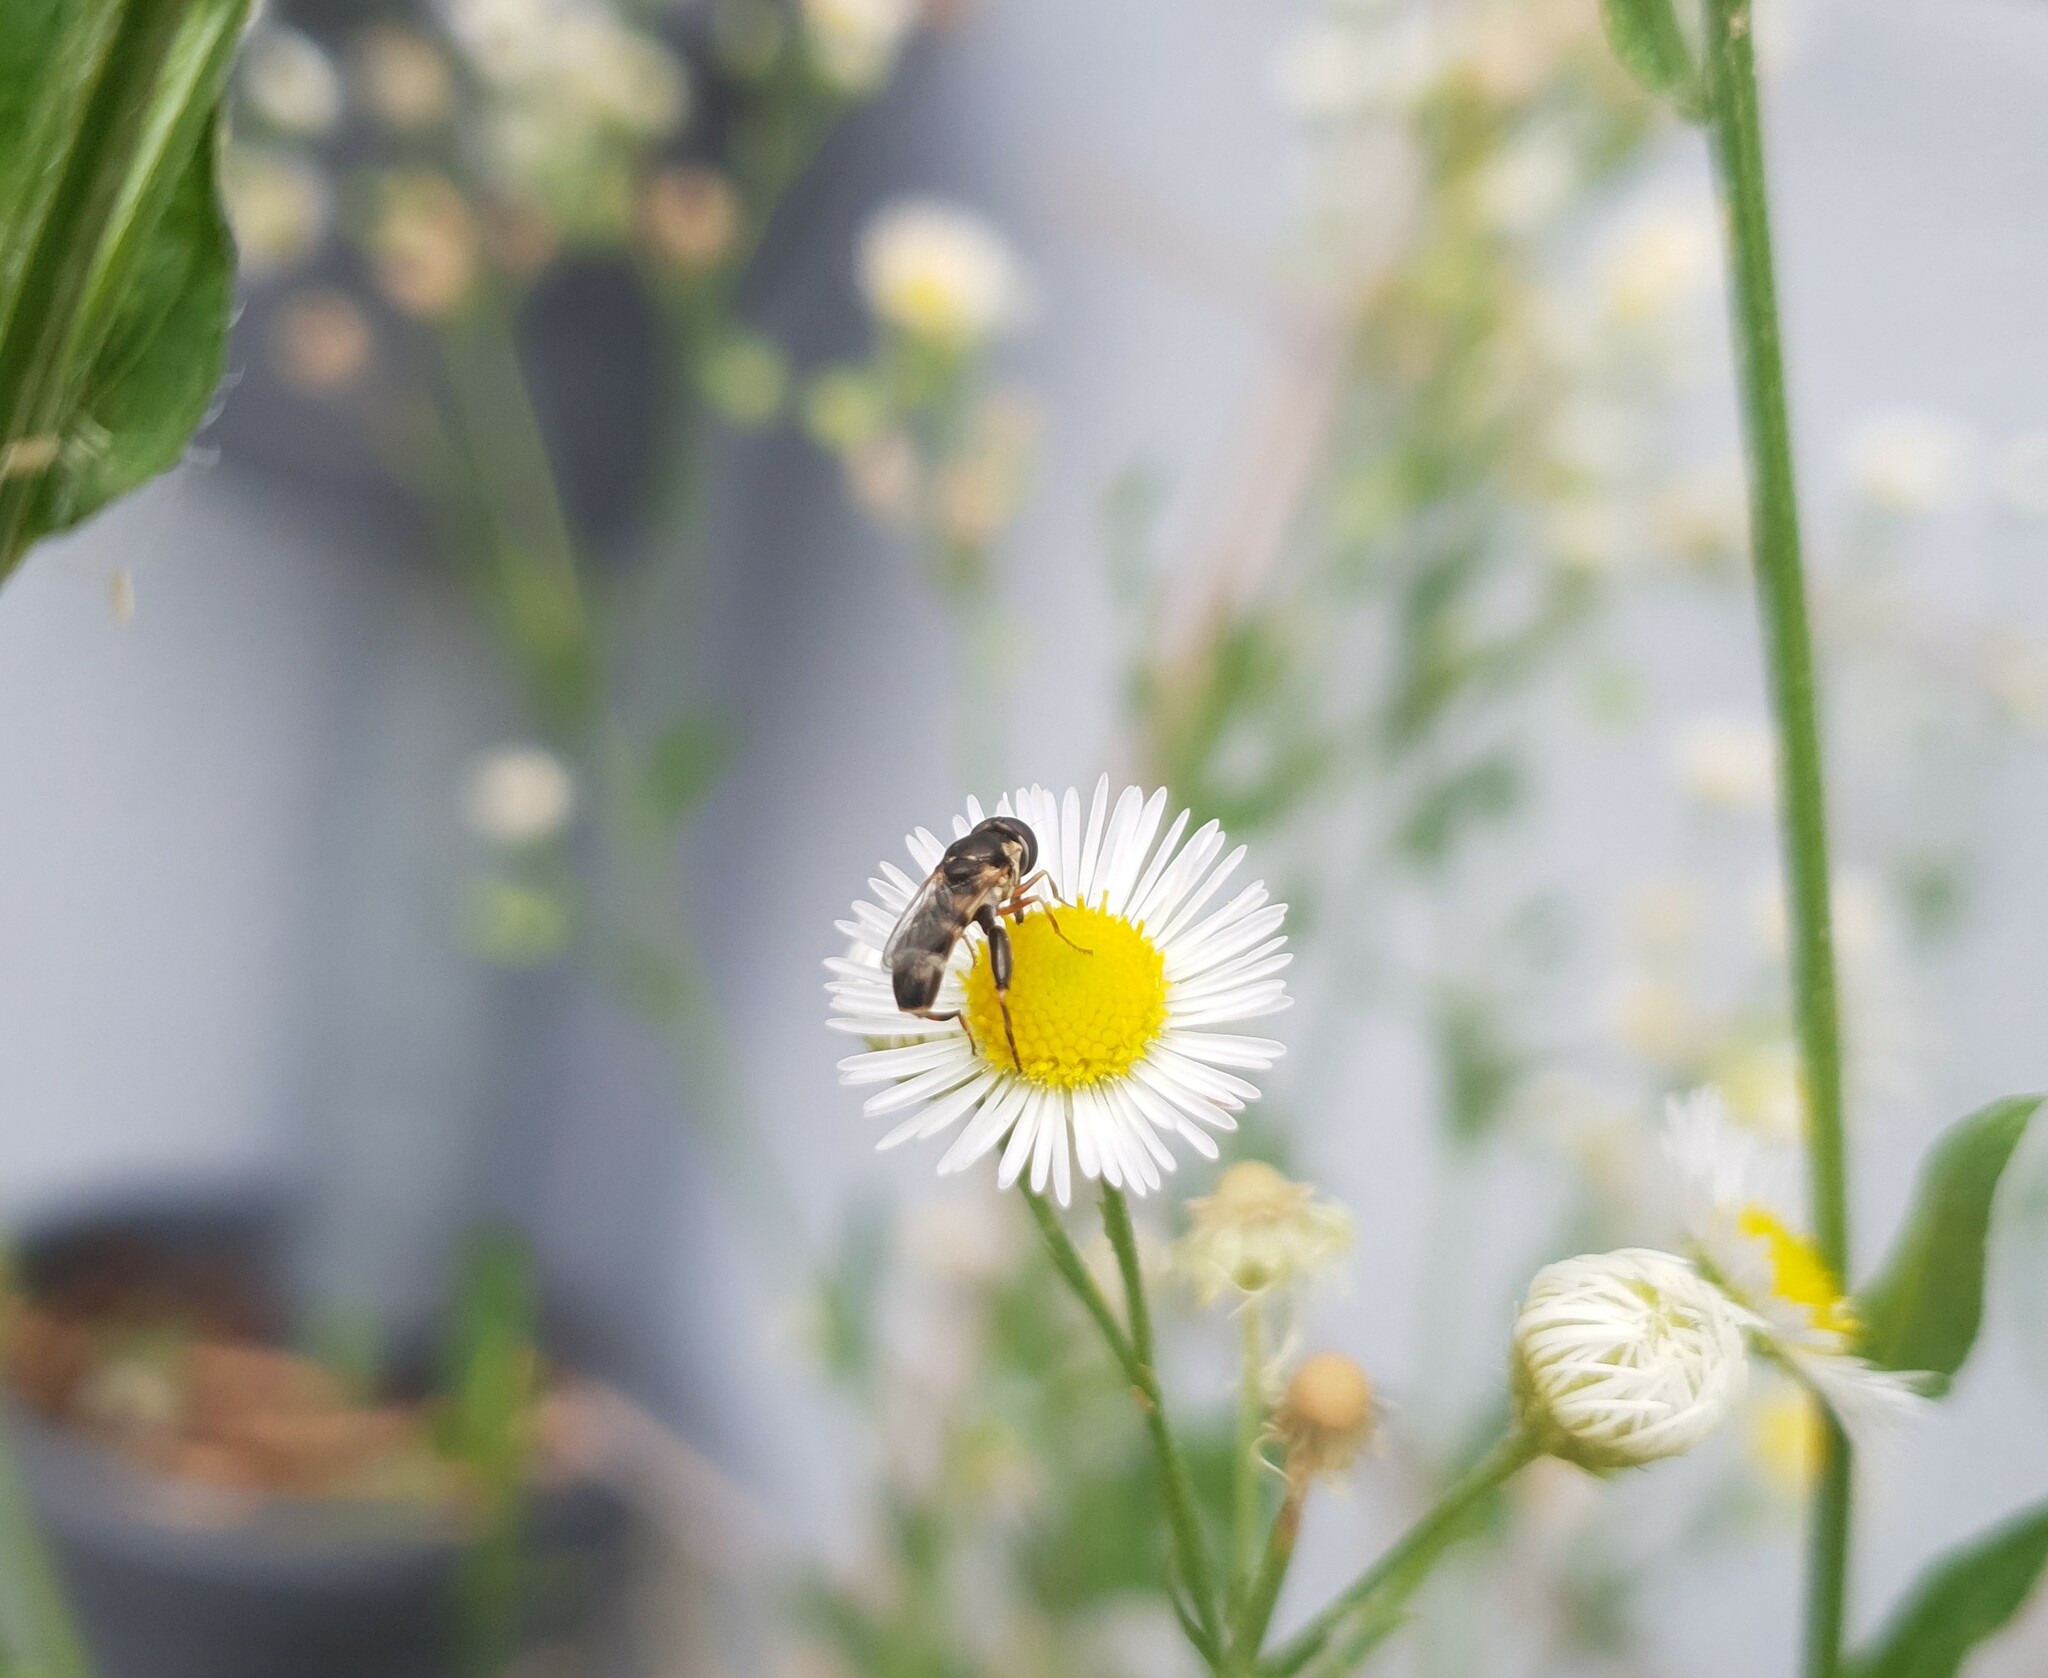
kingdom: Animalia
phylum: Arthropoda
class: Insecta
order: Diptera
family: Syrphidae
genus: Syritta
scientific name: Syritta pipiens
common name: Hover fly
